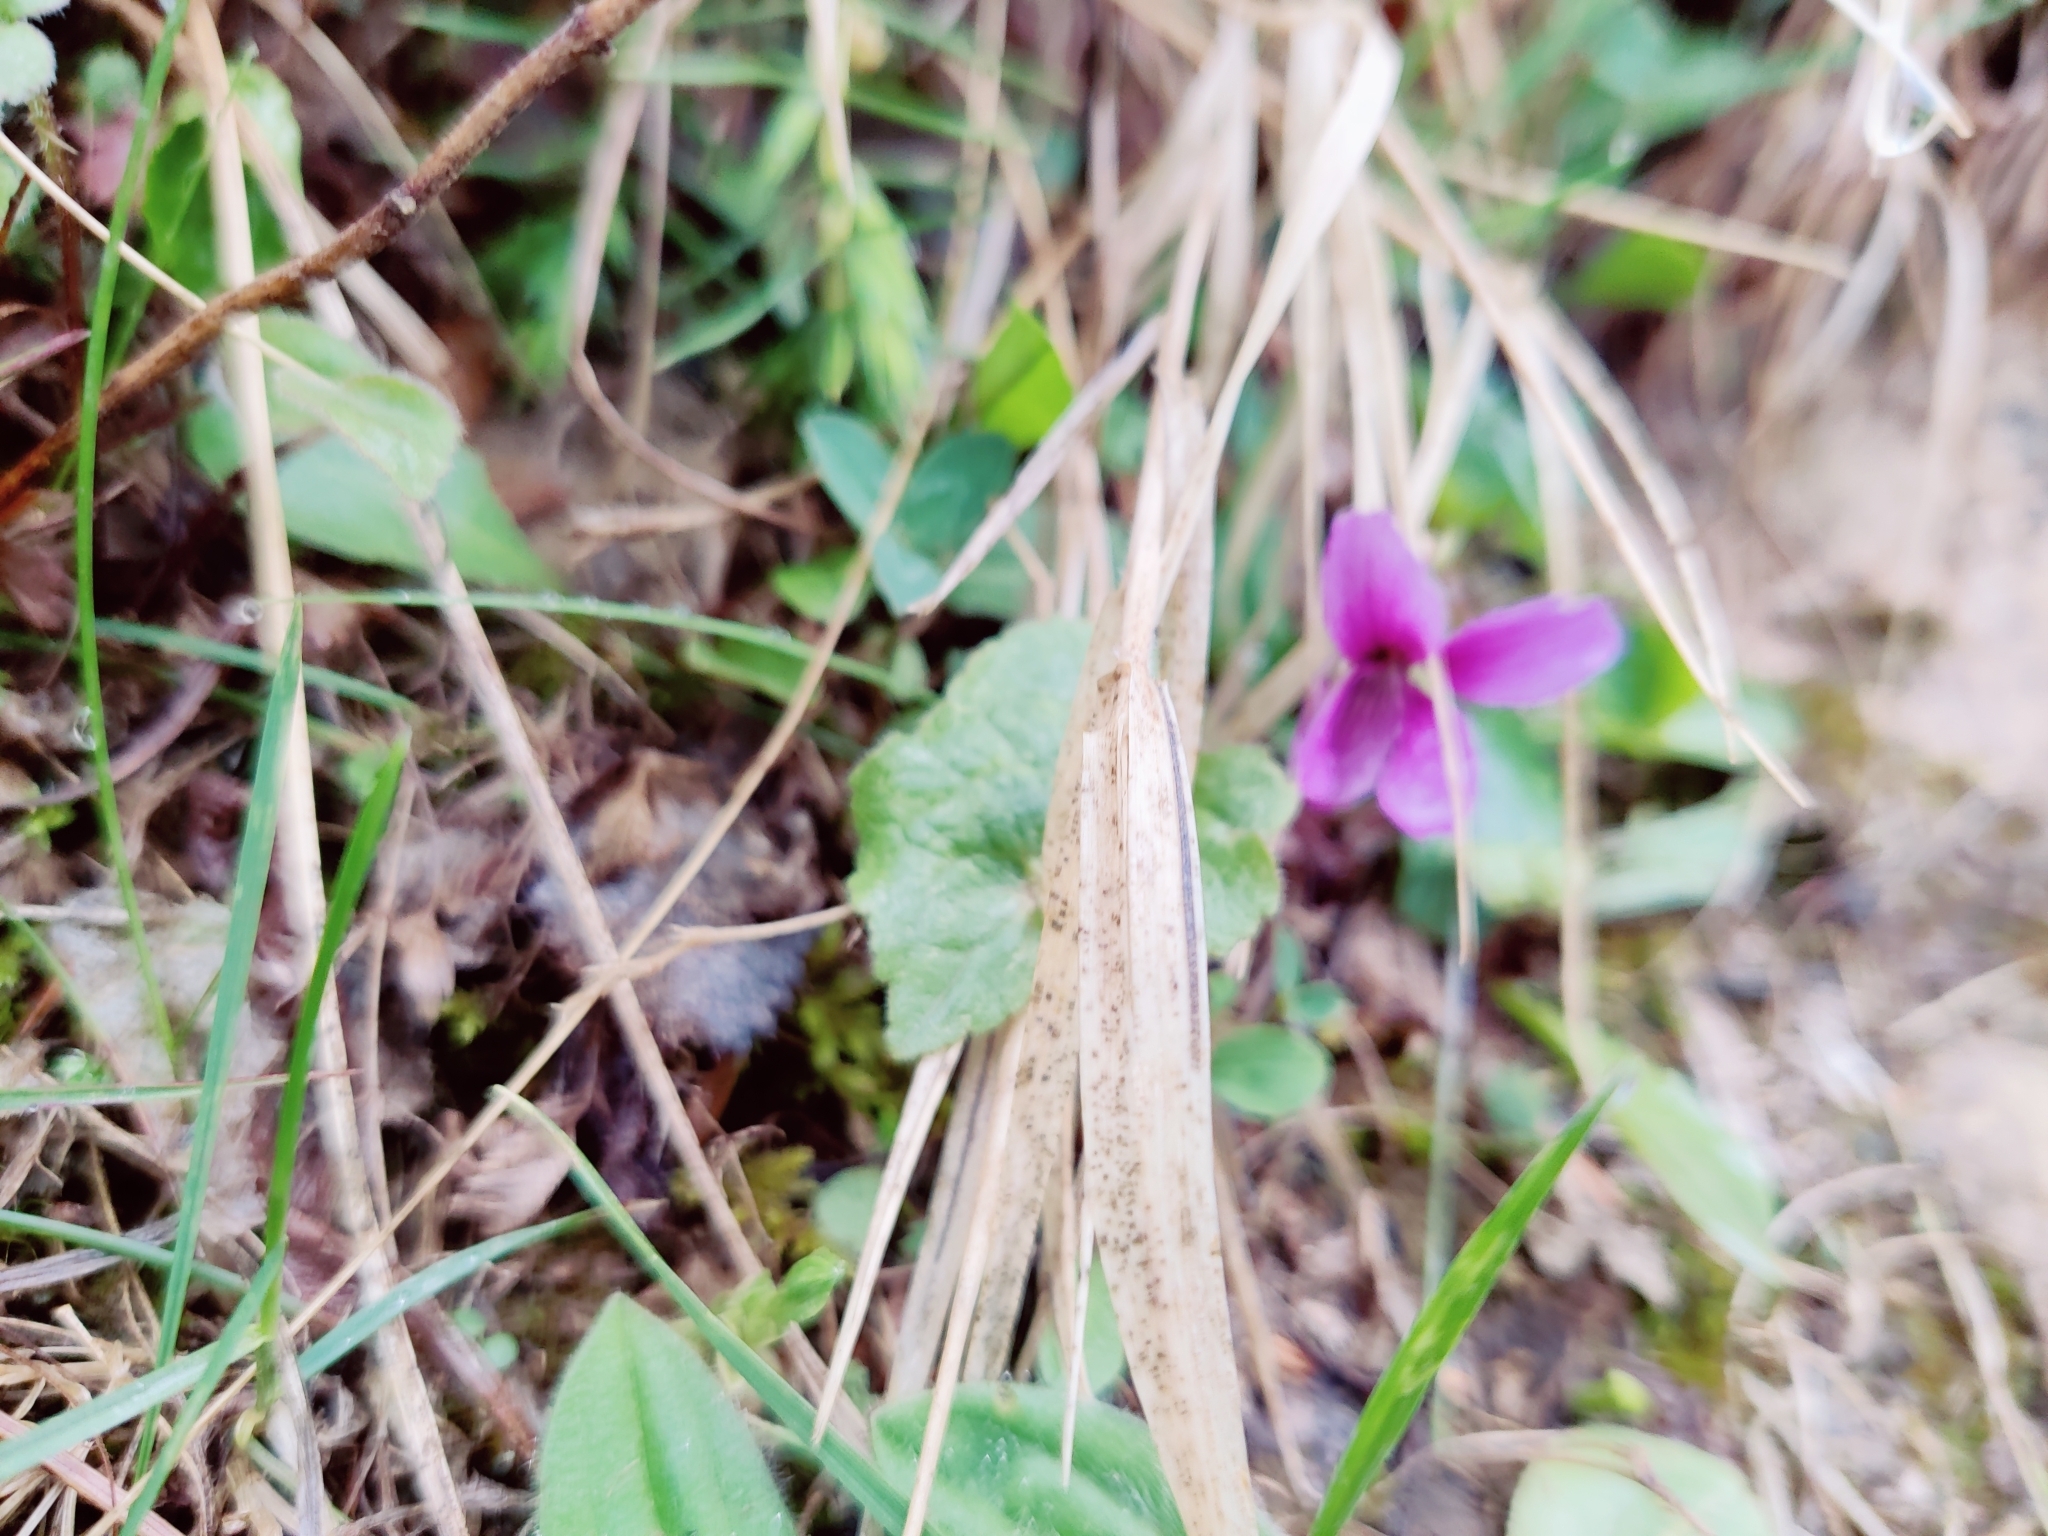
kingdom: Plantae
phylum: Tracheophyta
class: Magnoliopsida
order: Malpighiales
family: Violaceae
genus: Viola
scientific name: Viola somchetica
